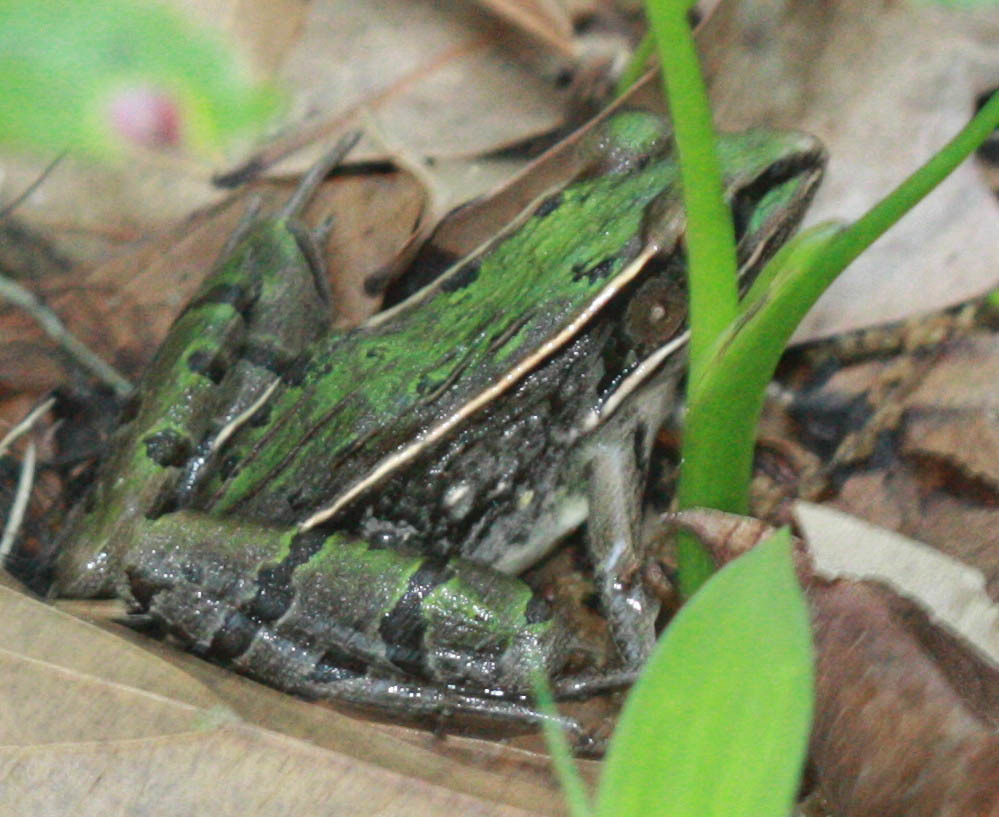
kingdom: Animalia
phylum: Chordata
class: Amphibia
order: Anura
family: Ranidae
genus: Lithobates
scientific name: Lithobates sphenocephalus
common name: Southern leopard frog
